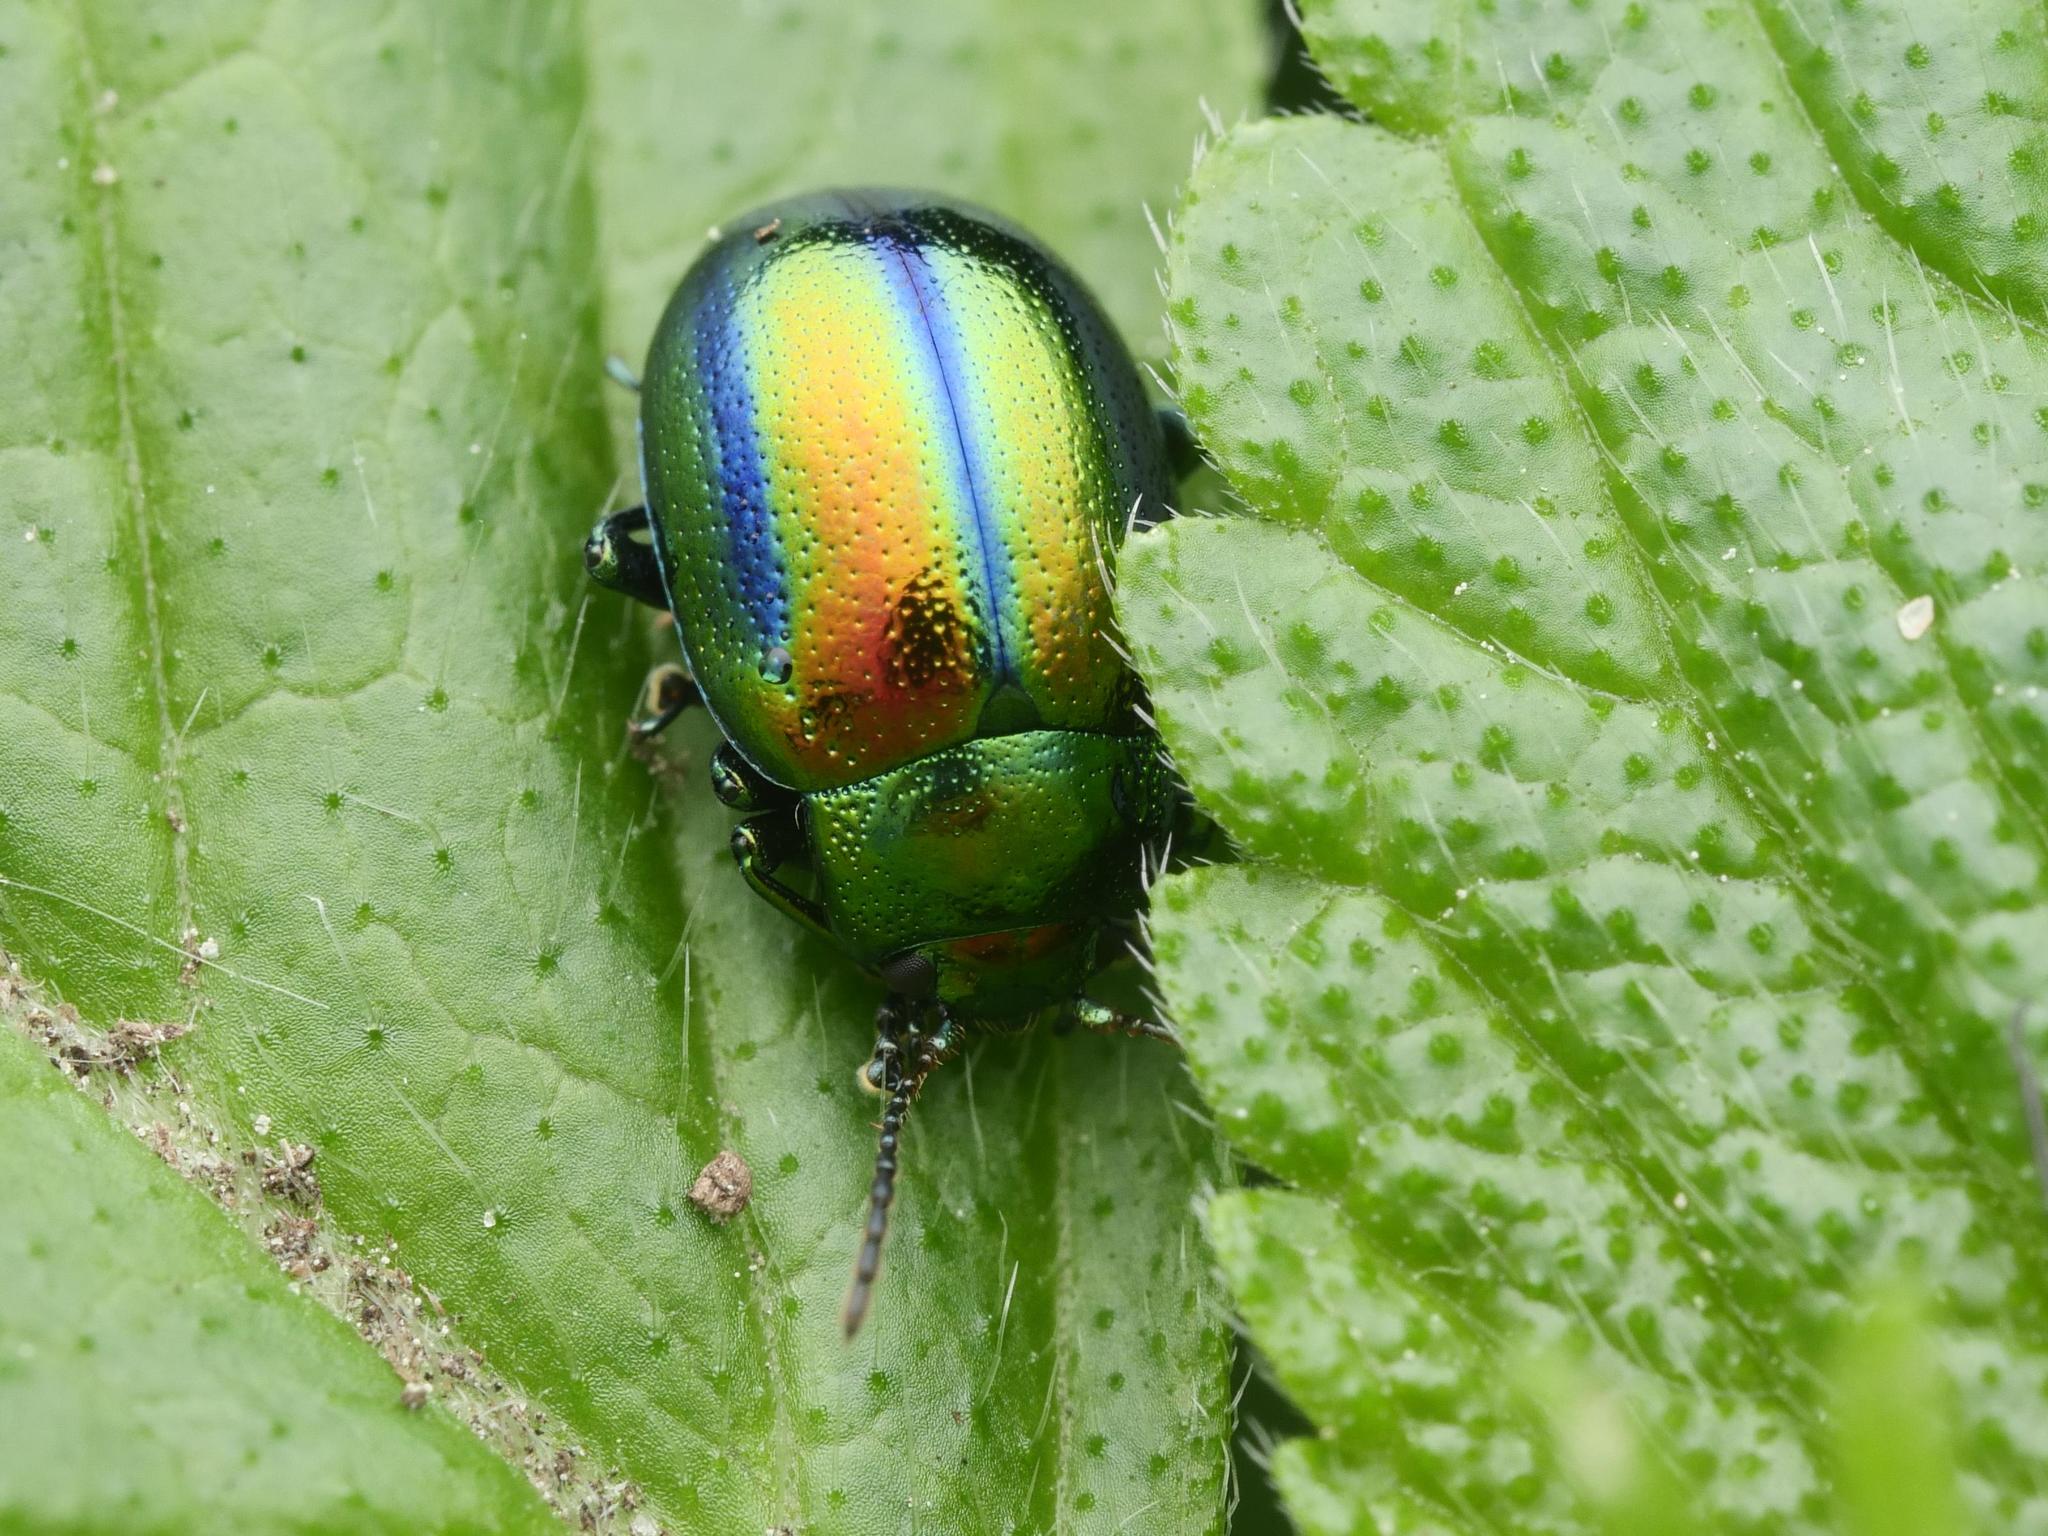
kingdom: Animalia
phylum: Arthropoda
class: Insecta
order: Coleoptera
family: Chrysomelidae
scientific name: Chrysomelidae
